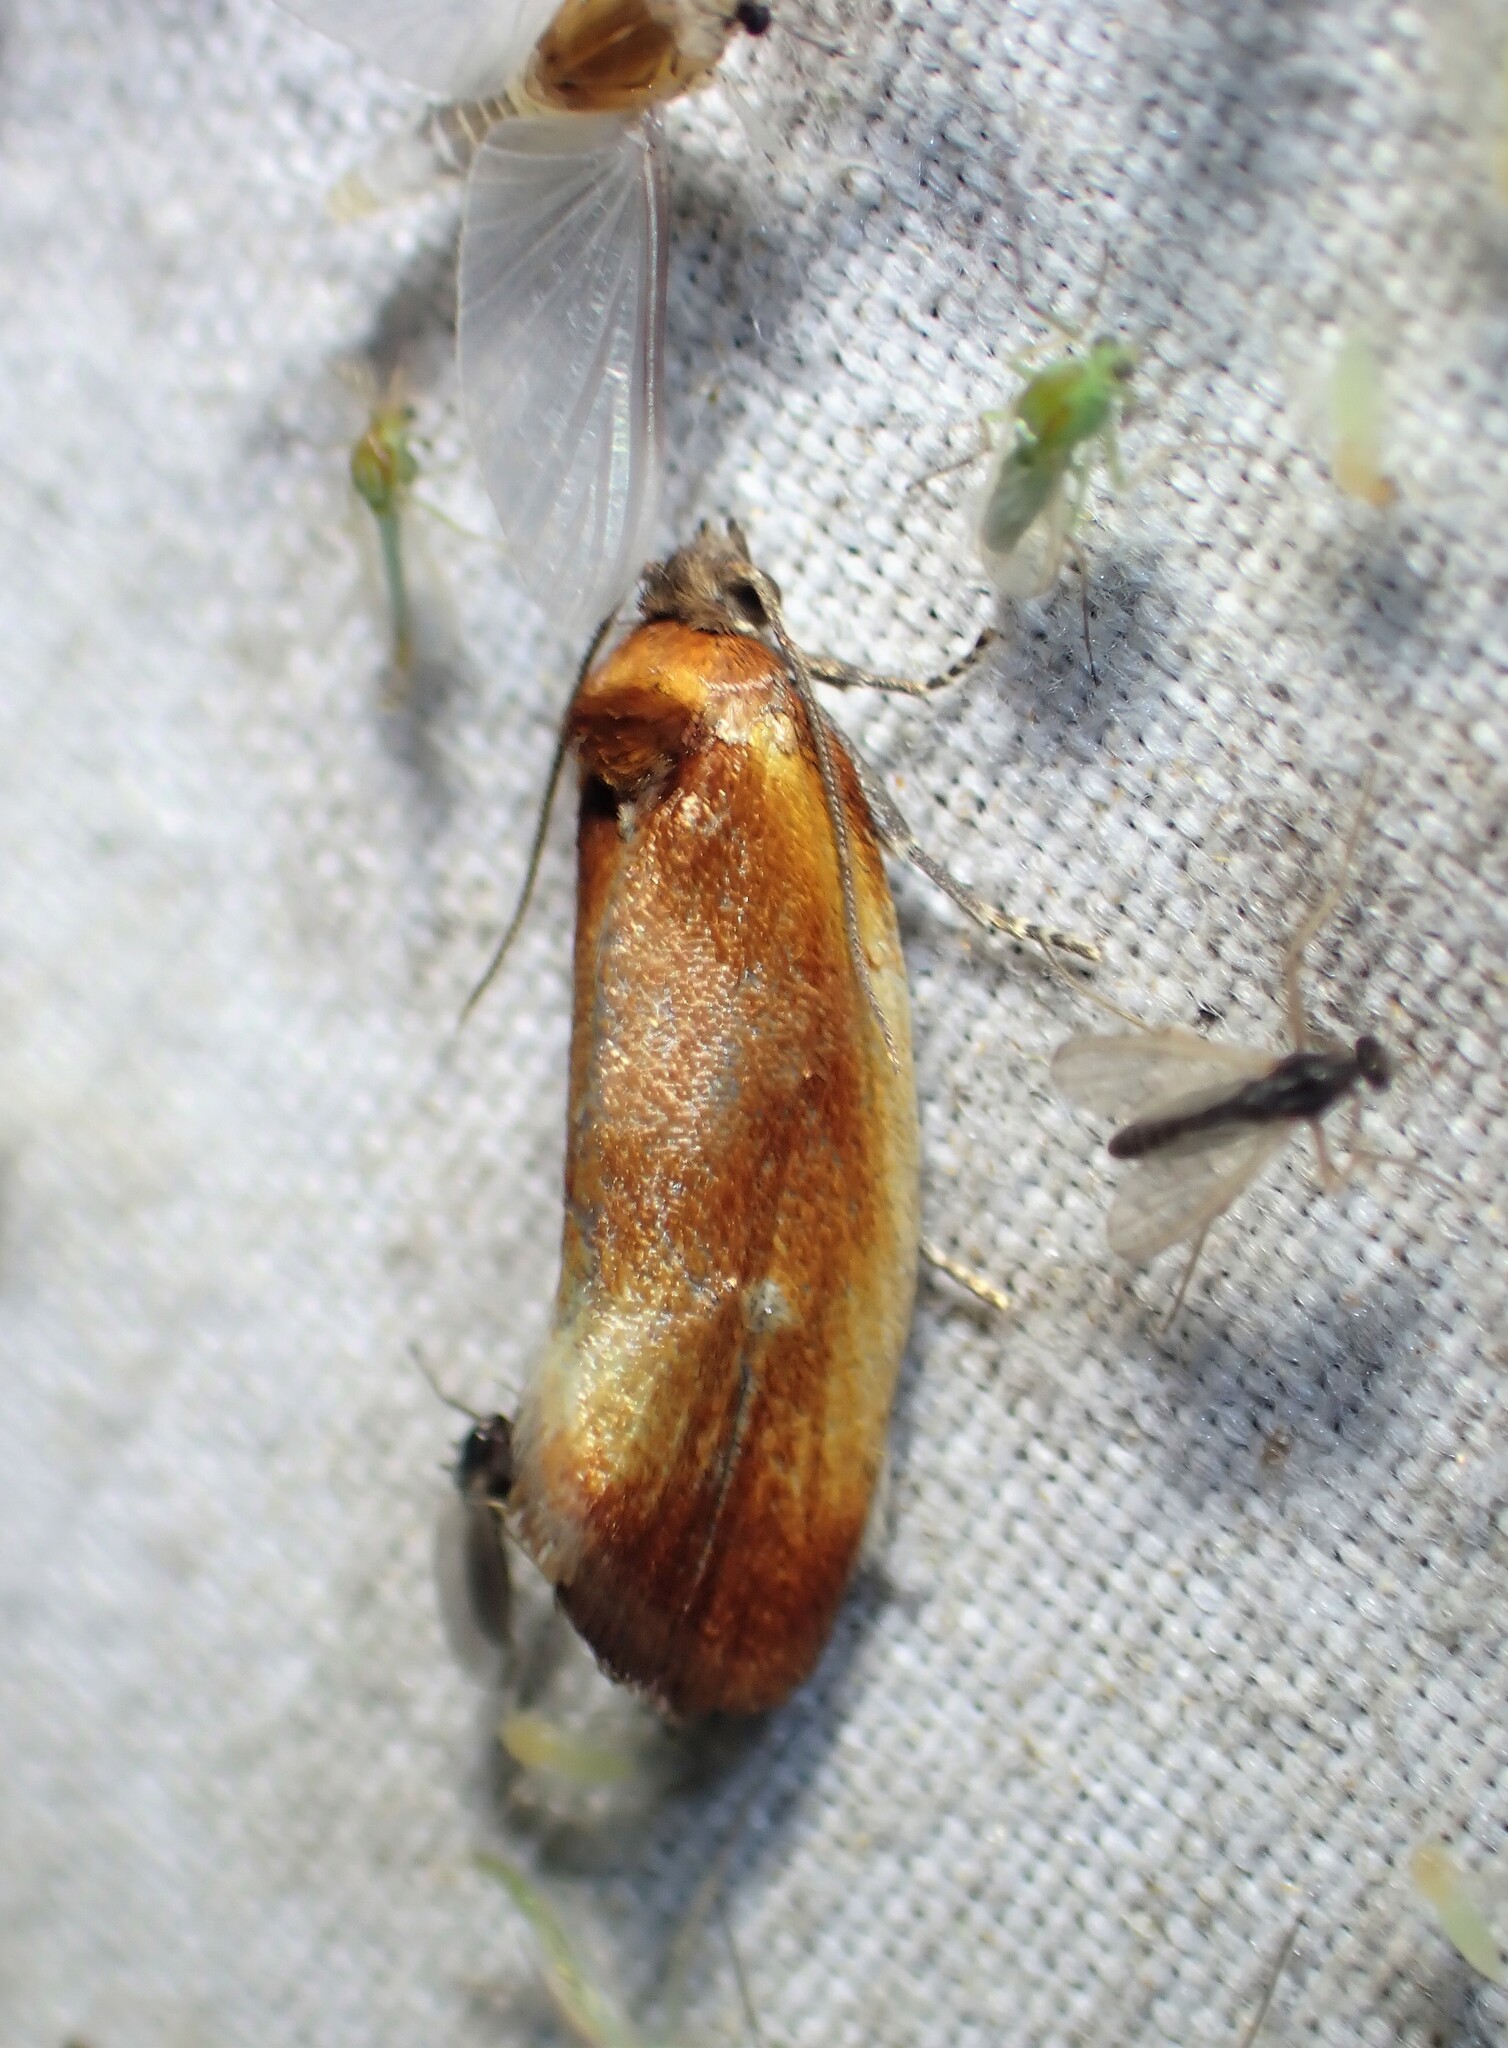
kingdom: Animalia
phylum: Arthropoda
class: Insecta
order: Lepidoptera
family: Tortricidae
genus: Eulia
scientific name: Eulia ministrana
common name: Brassy twist
